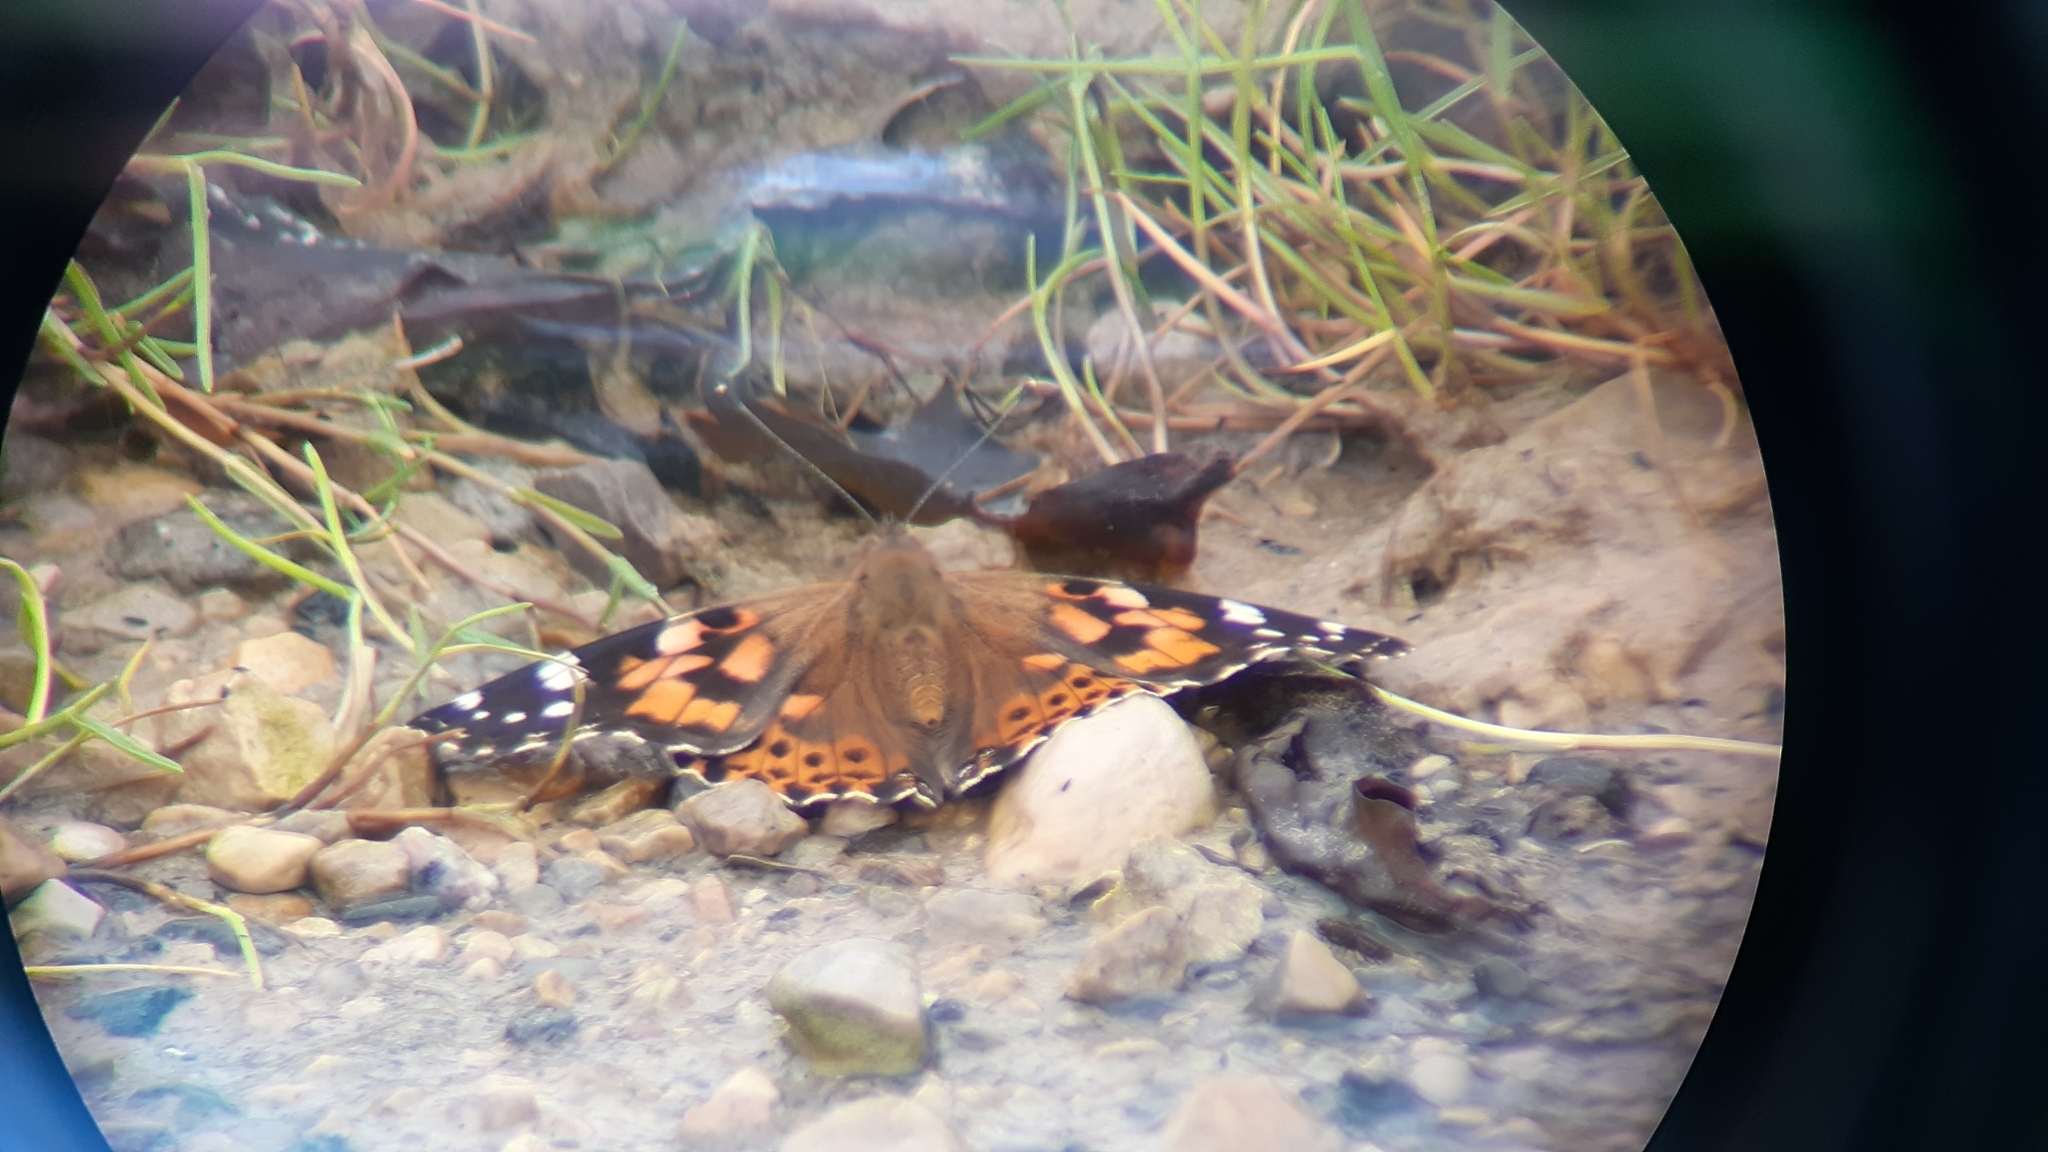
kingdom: Animalia
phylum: Arthropoda
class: Insecta
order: Lepidoptera
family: Nymphalidae
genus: Vanessa
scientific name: Vanessa cardui
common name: Painted lady
